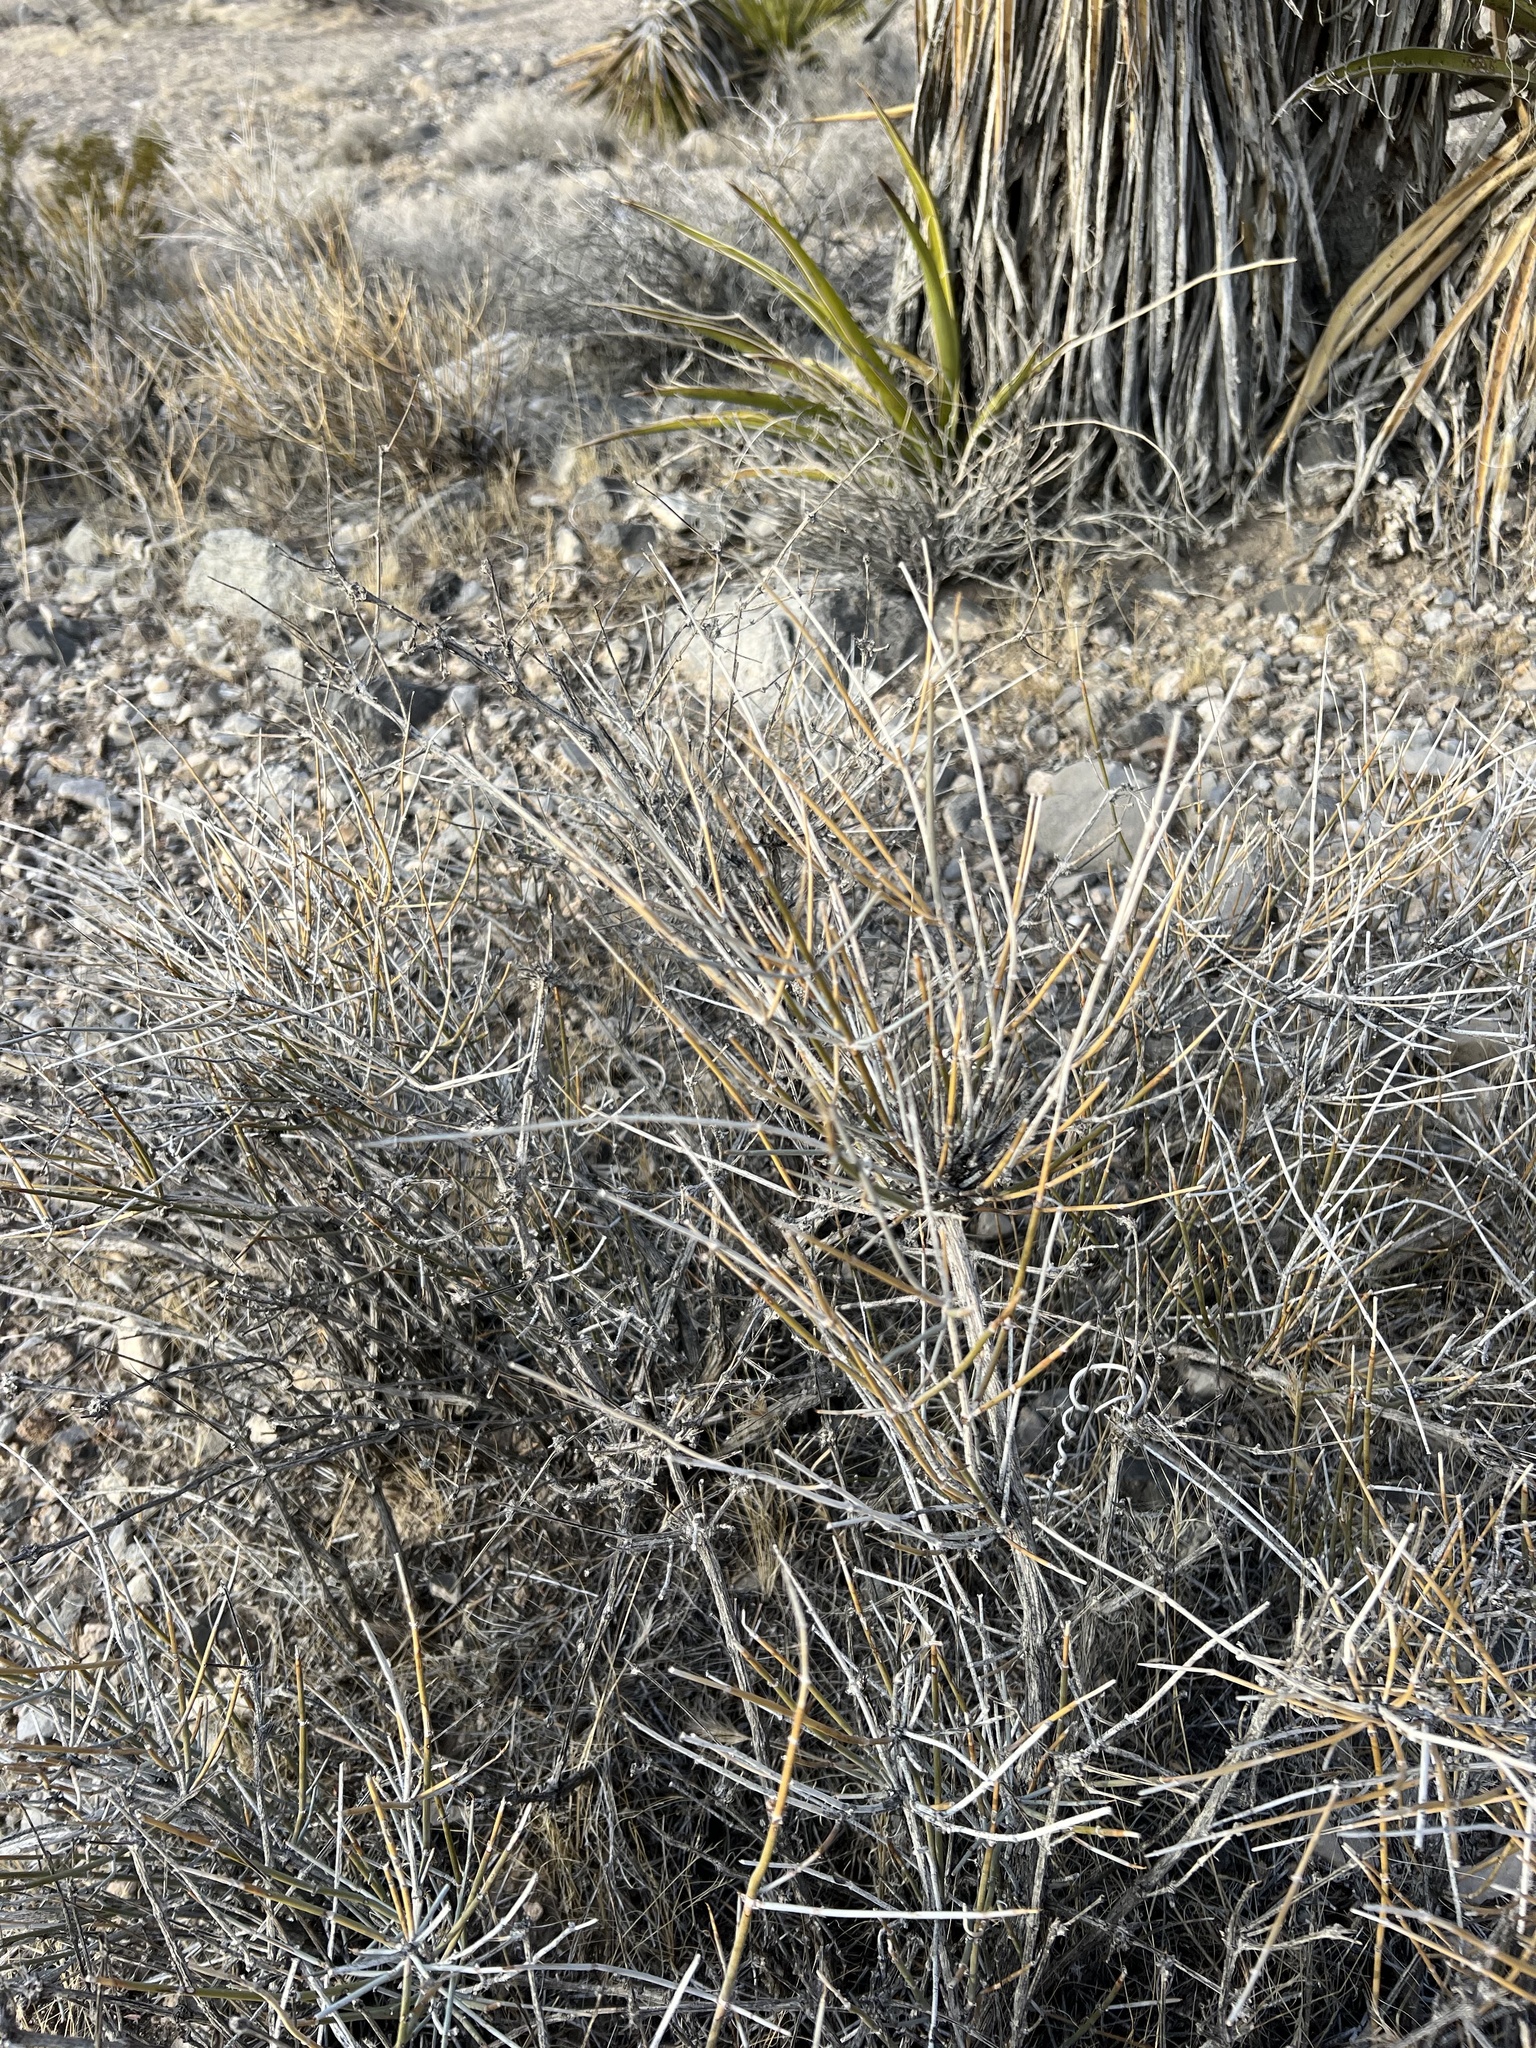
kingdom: Plantae
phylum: Tracheophyta
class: Gnetopsida
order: Ephedrales
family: Ephedraceae
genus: Ephedra
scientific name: Ephedra nevadensis
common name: Gray ephedra
